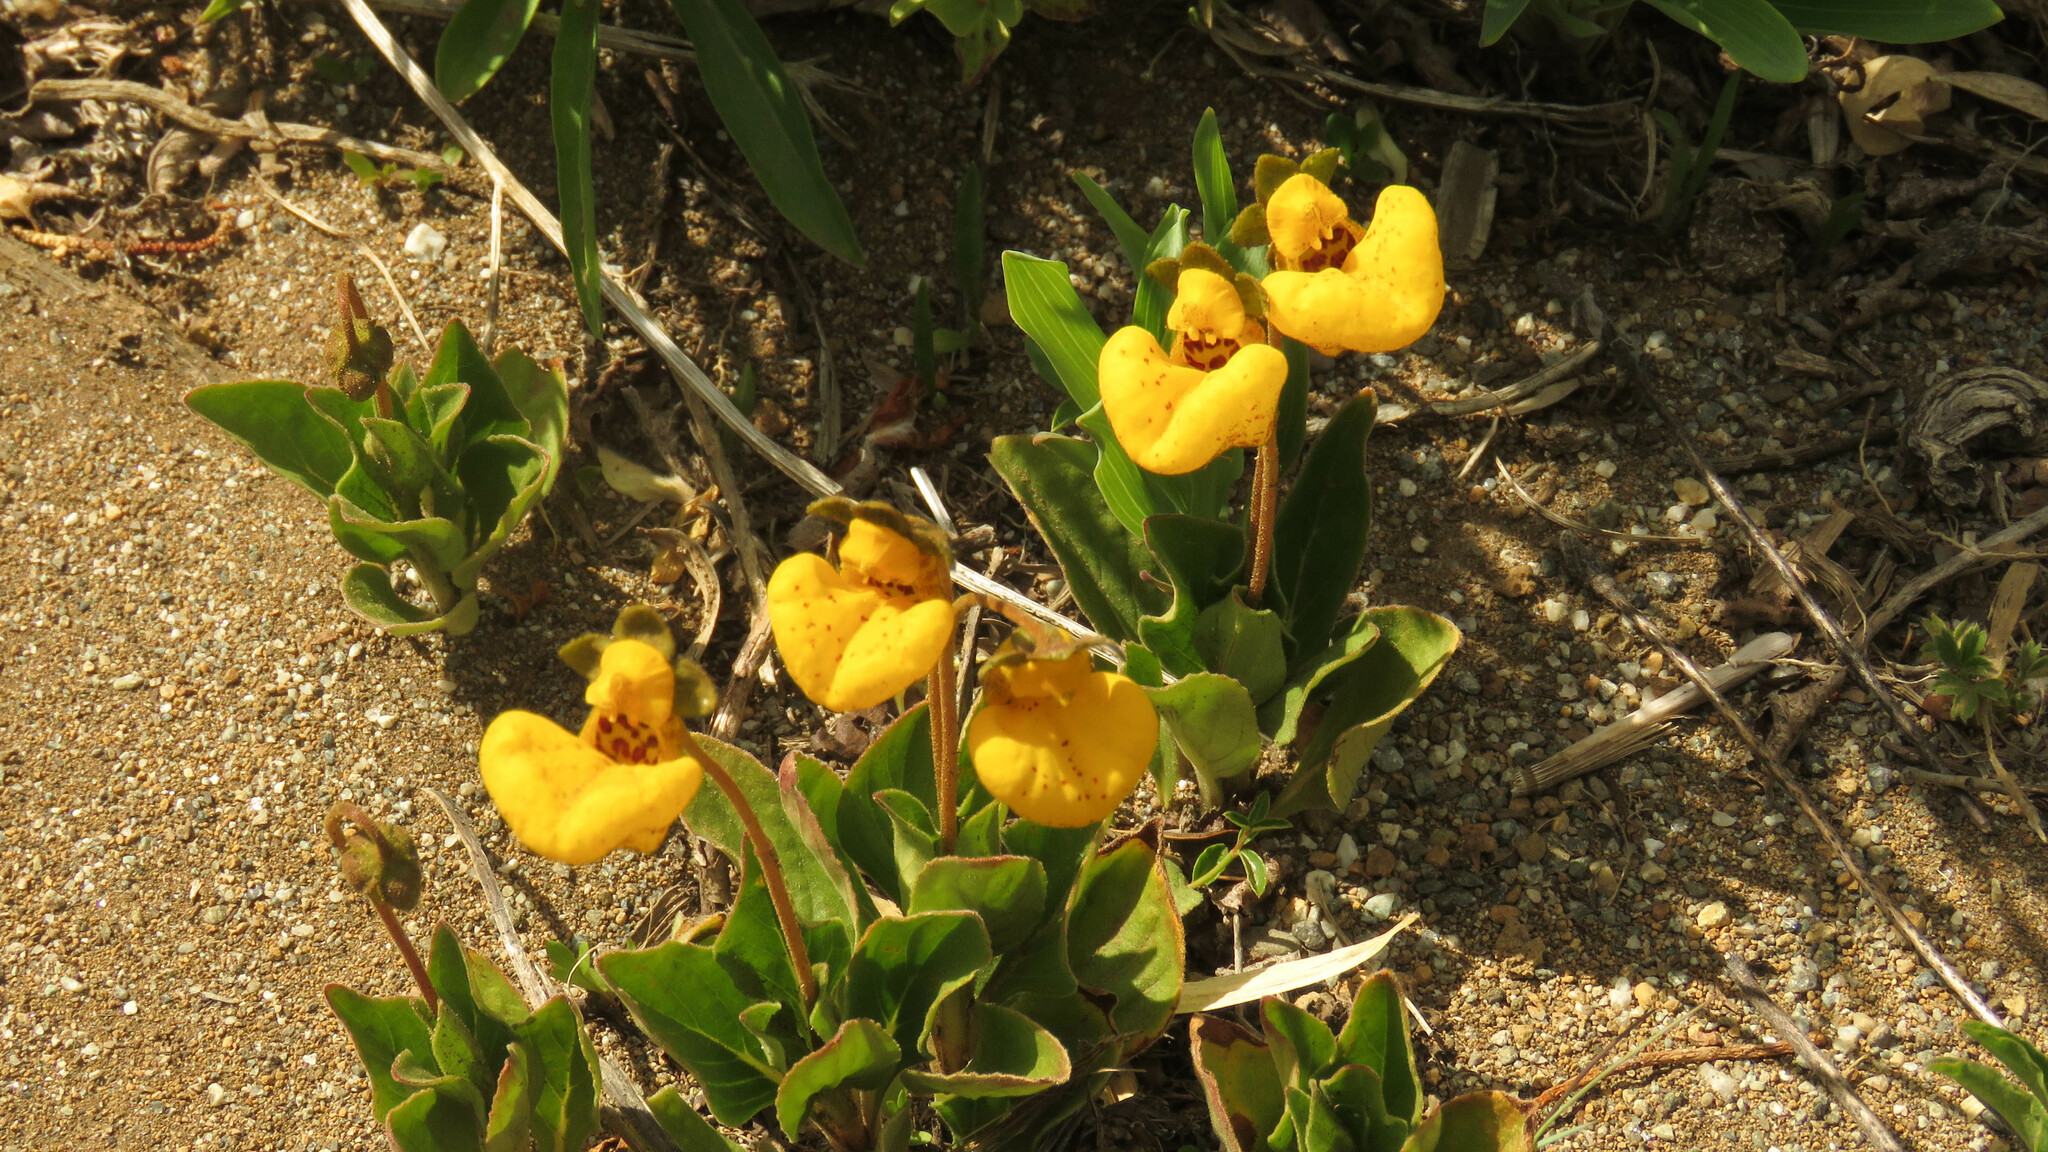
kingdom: Plantae
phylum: Tracheophyta
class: Magnoliopsida
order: Lamiales
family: Calceolariaceae
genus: Calceolaria
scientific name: Calceolaria polyrhiza
